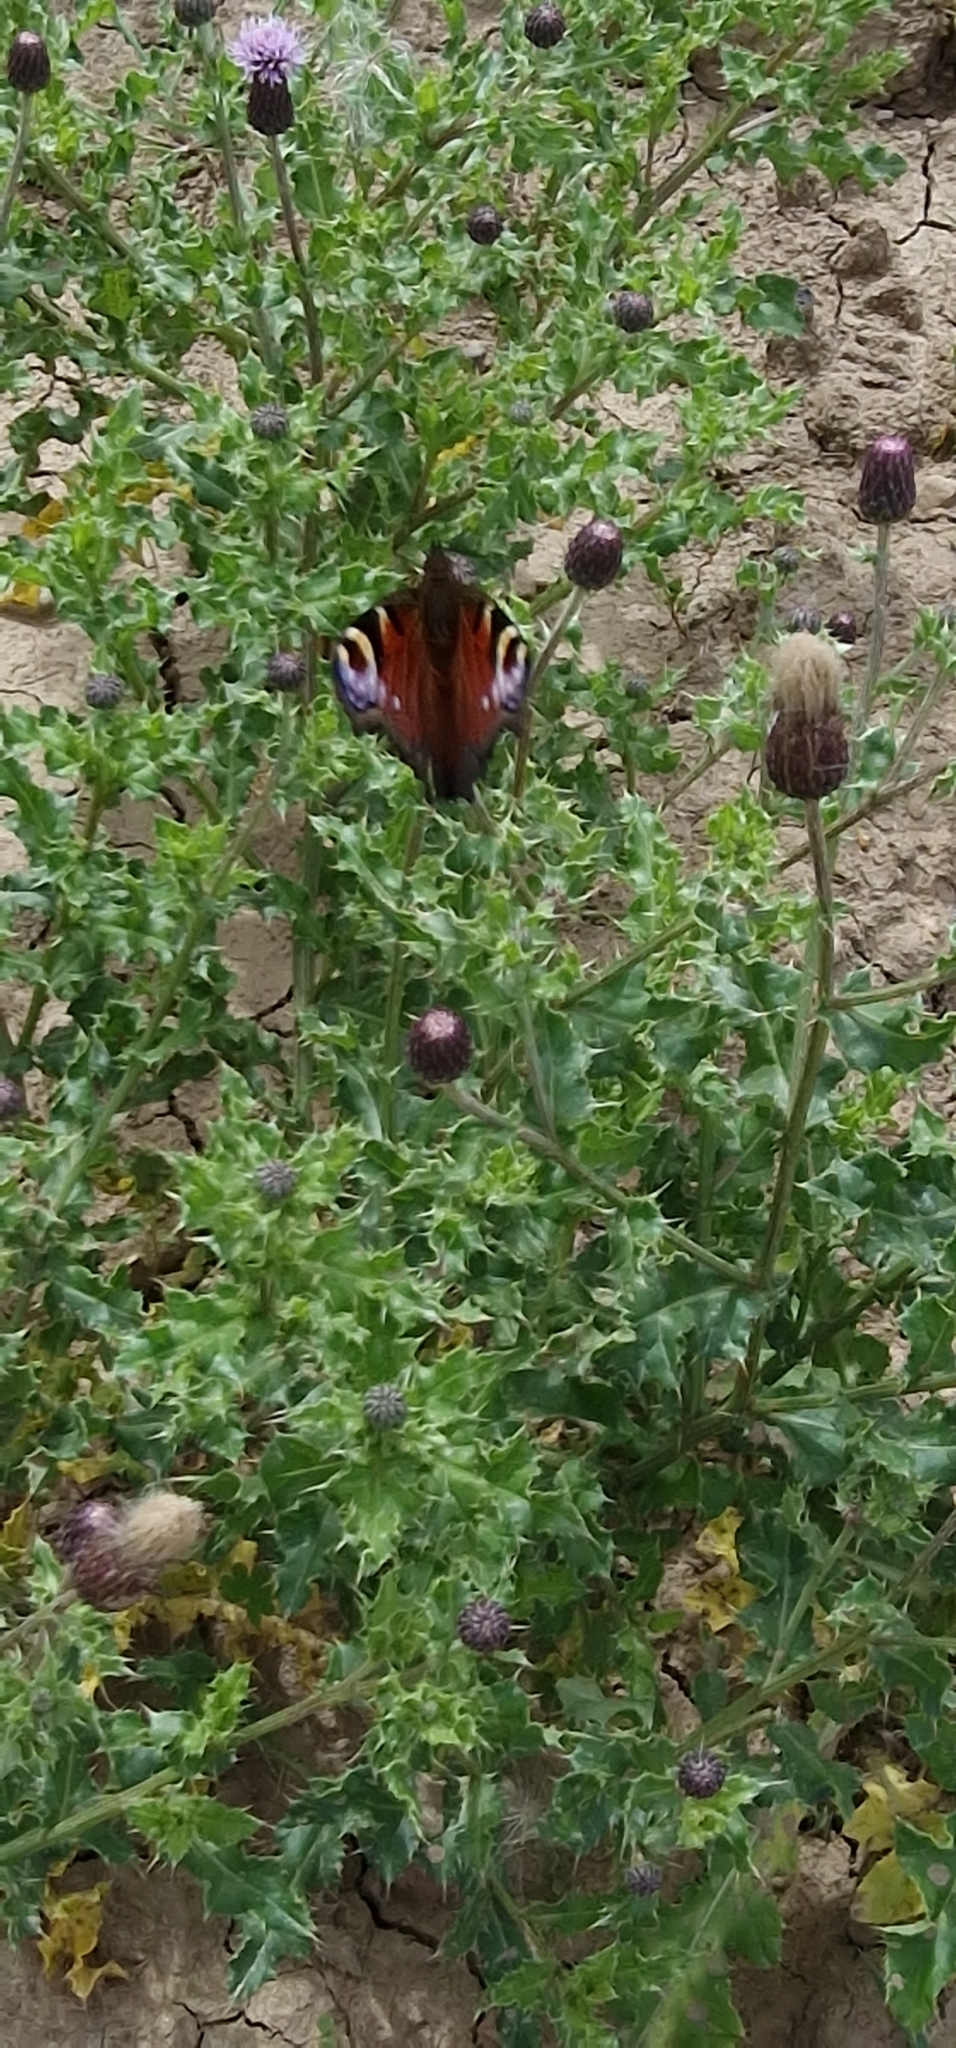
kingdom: Animalia
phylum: Arthropoda
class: Insecta
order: Lepidoptera
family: Nymphalidae
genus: Aglais
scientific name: Aglais io
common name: Peacock
